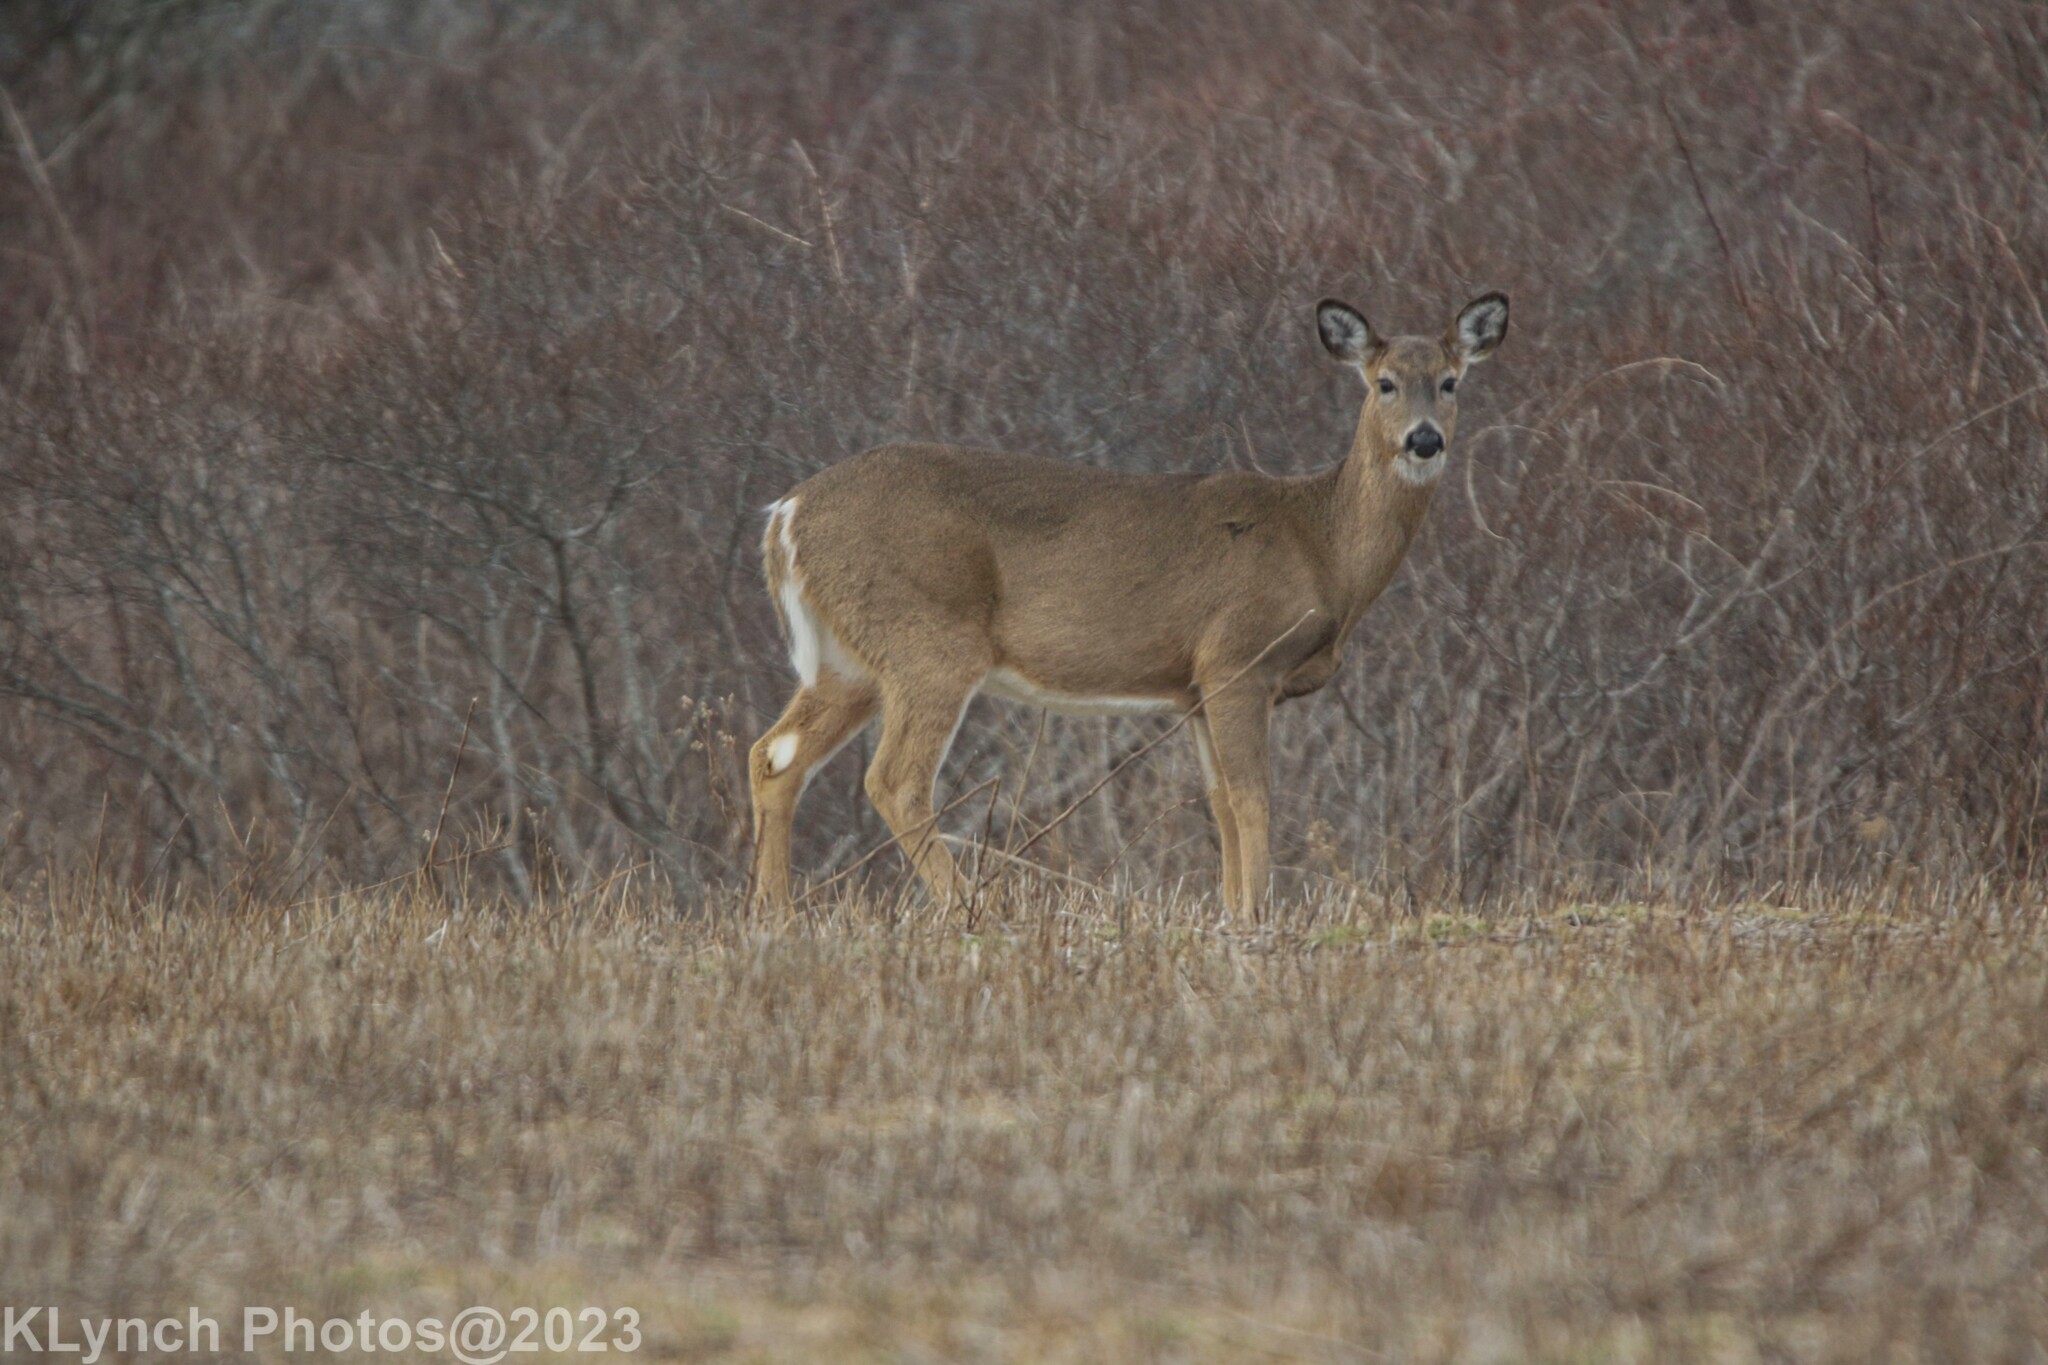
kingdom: Animalia
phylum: Chordata
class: Mammalia
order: Artiodactyla
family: Cervidae
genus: Odocoileus
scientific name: Odocoileus virginianus
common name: White-tailed deer
